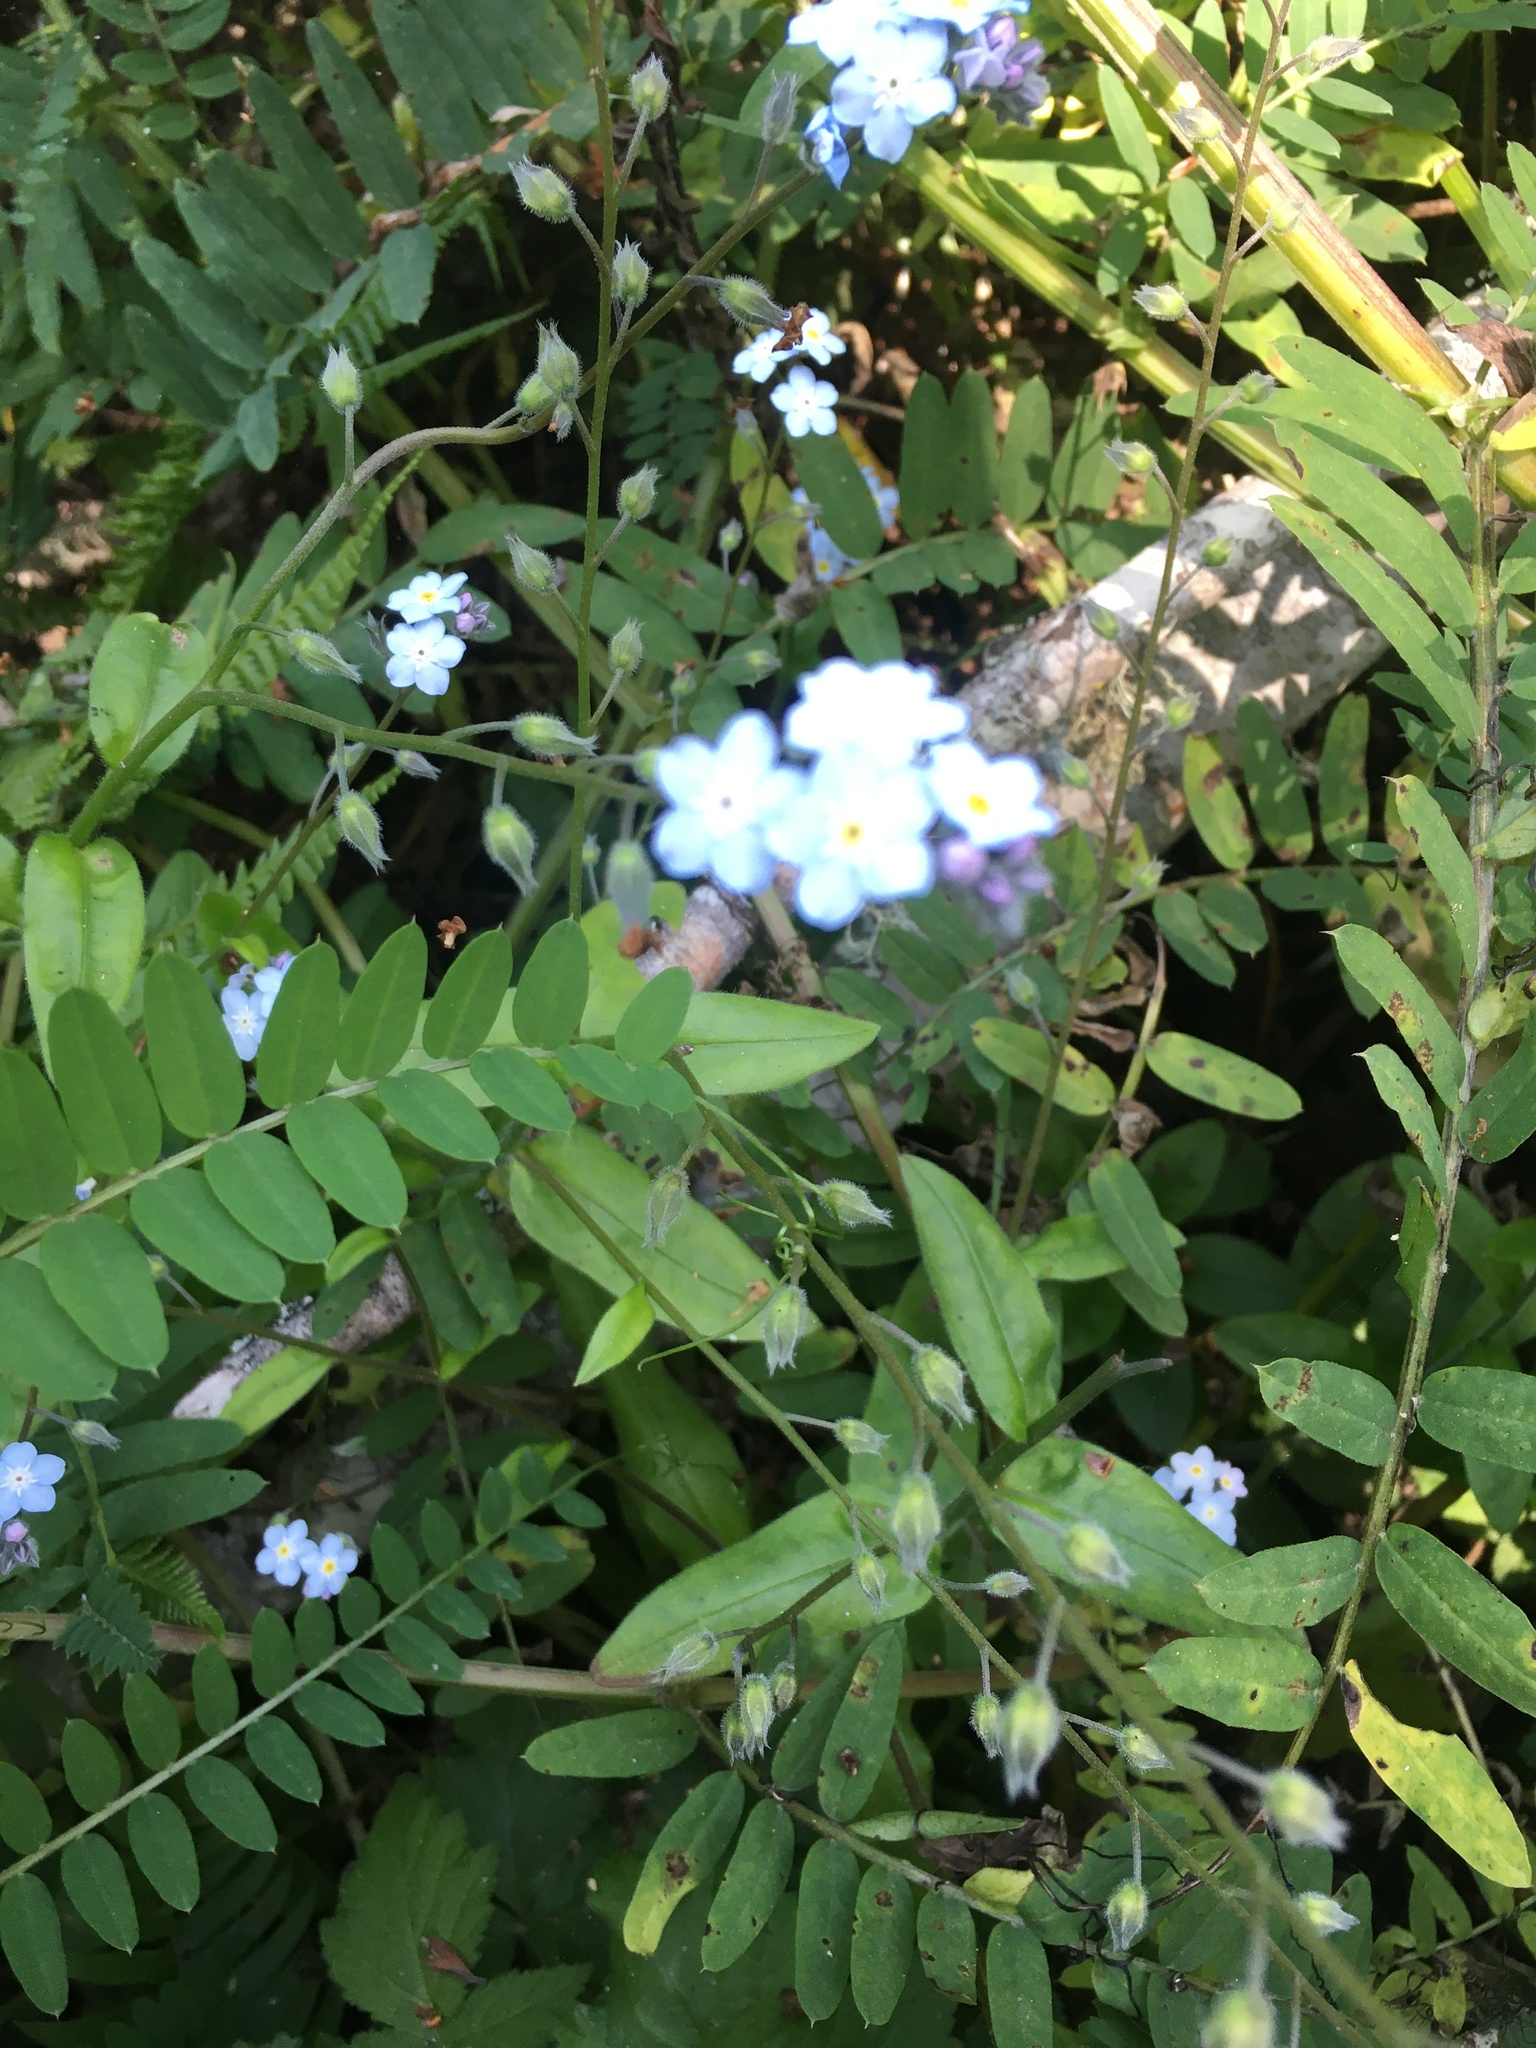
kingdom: Plantae
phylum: Tracheophyta
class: Magnoliopsida
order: Boraginales
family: Boraginaceae
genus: Myosotis
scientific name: Myosotis latifolia
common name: Broadleaf forget-me-not
